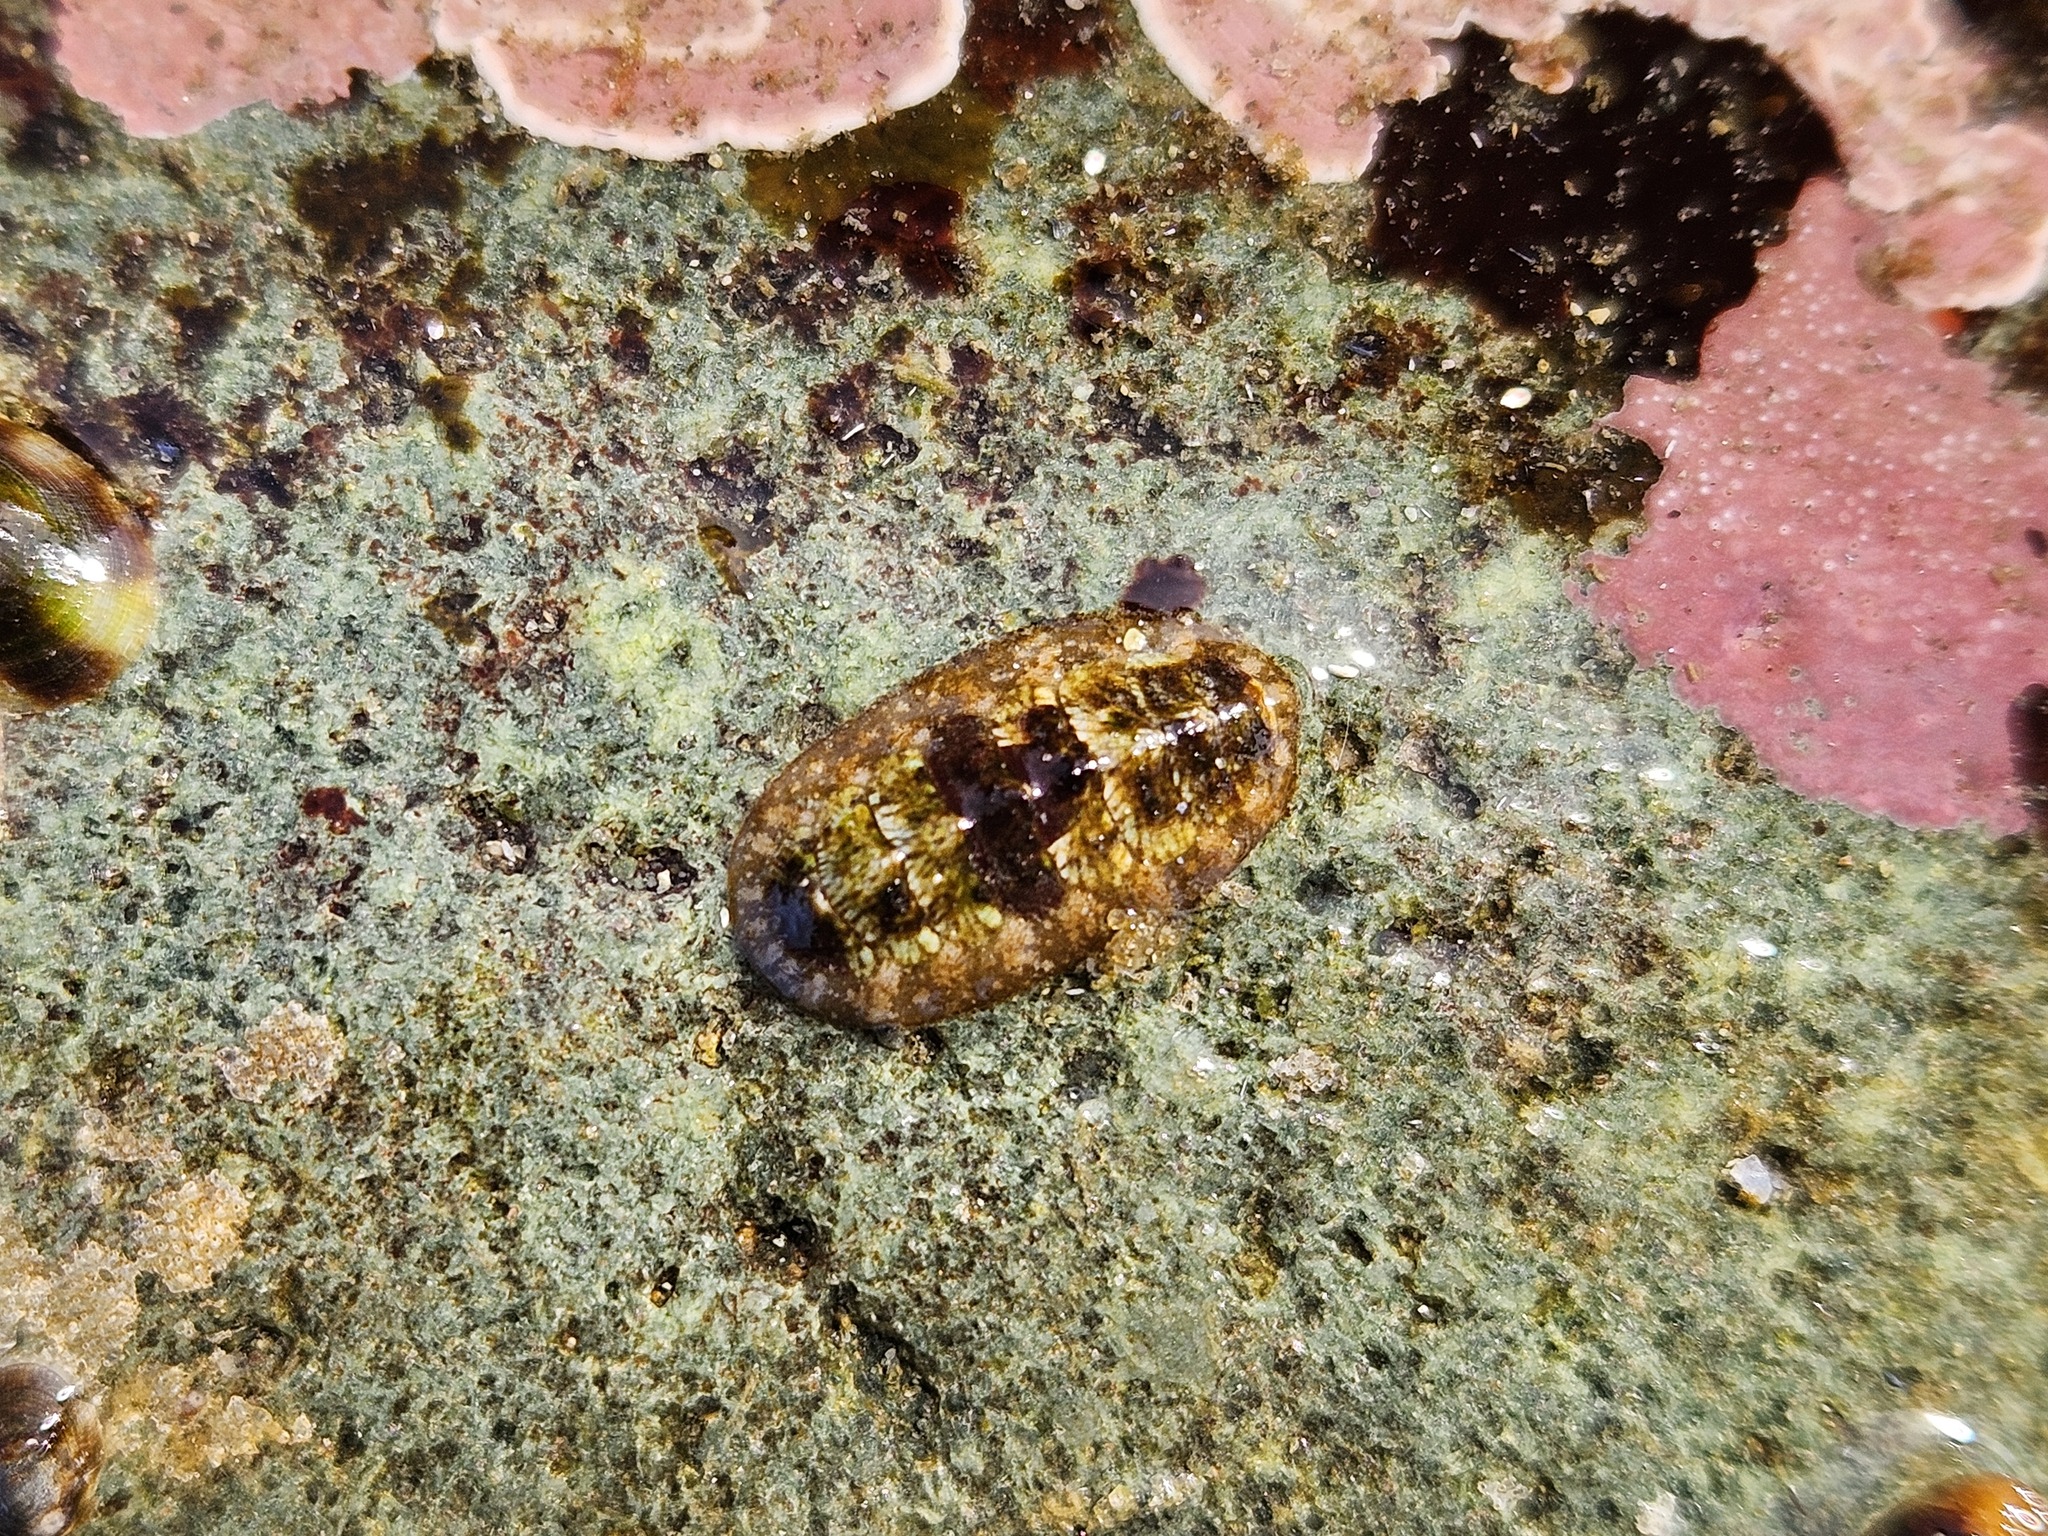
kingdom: Animalia
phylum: Mollusca
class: Polyplacophora
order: Chitonida
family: Tonicellidae
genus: Cyanoplax
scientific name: Cyanoplax dentiens
